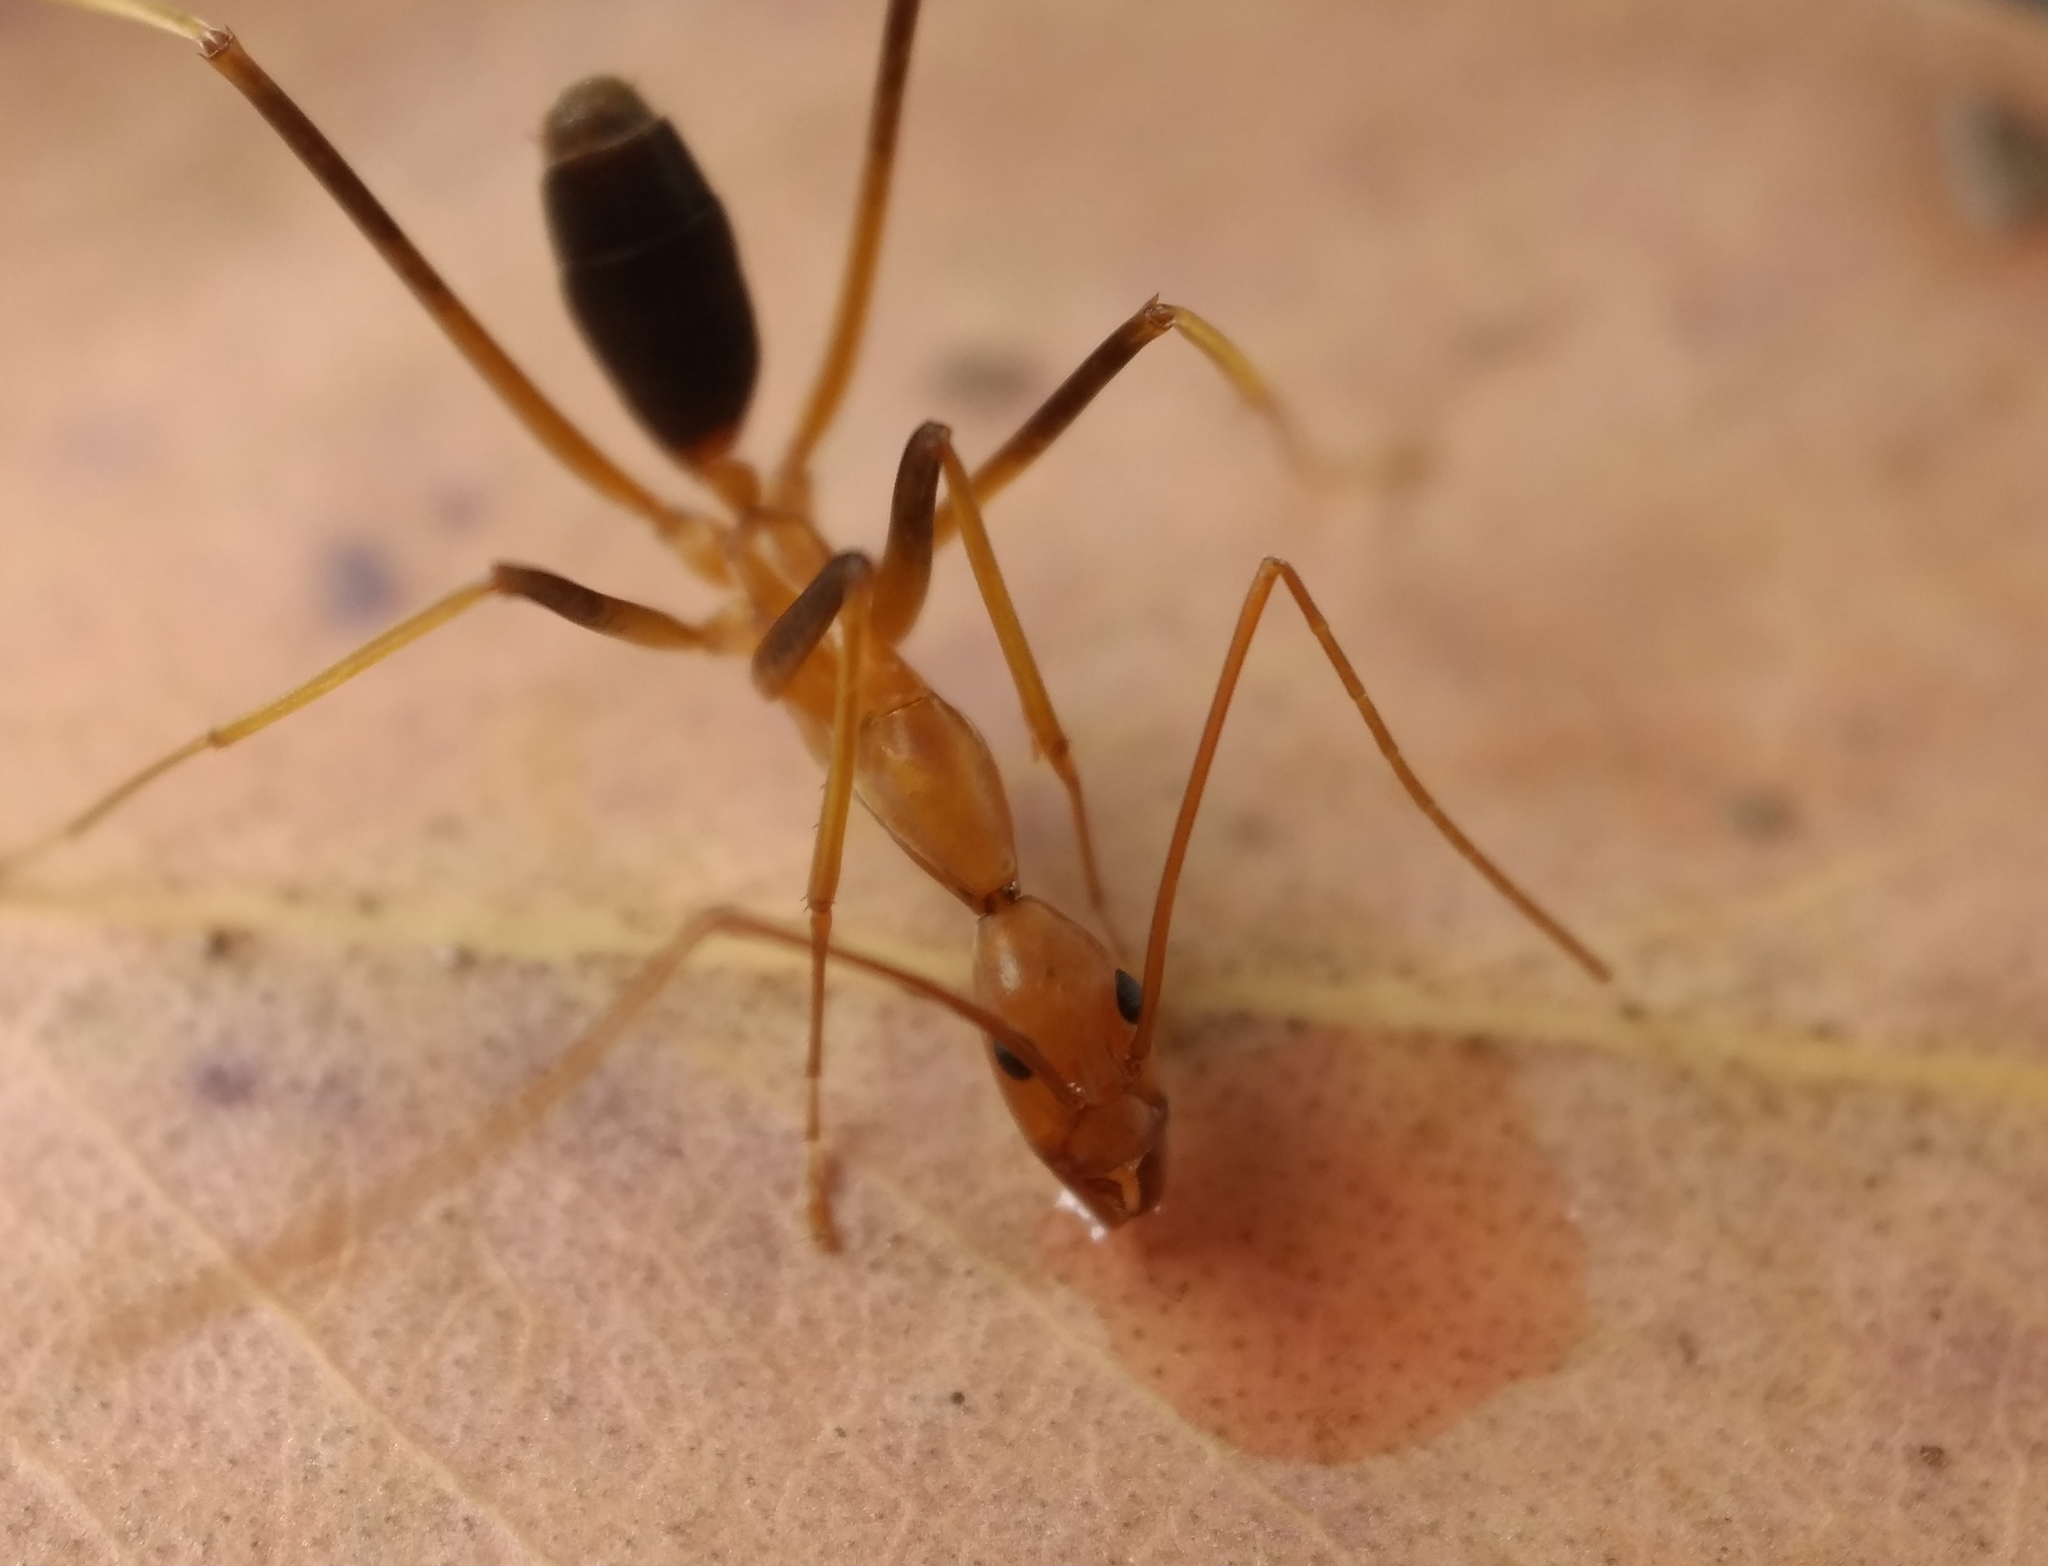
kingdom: Animalia
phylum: Arthropoda
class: Insecta
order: Hymenoptera
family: Formicidae
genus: Leptomyrmex
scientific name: Leptomyrmex rufipes
